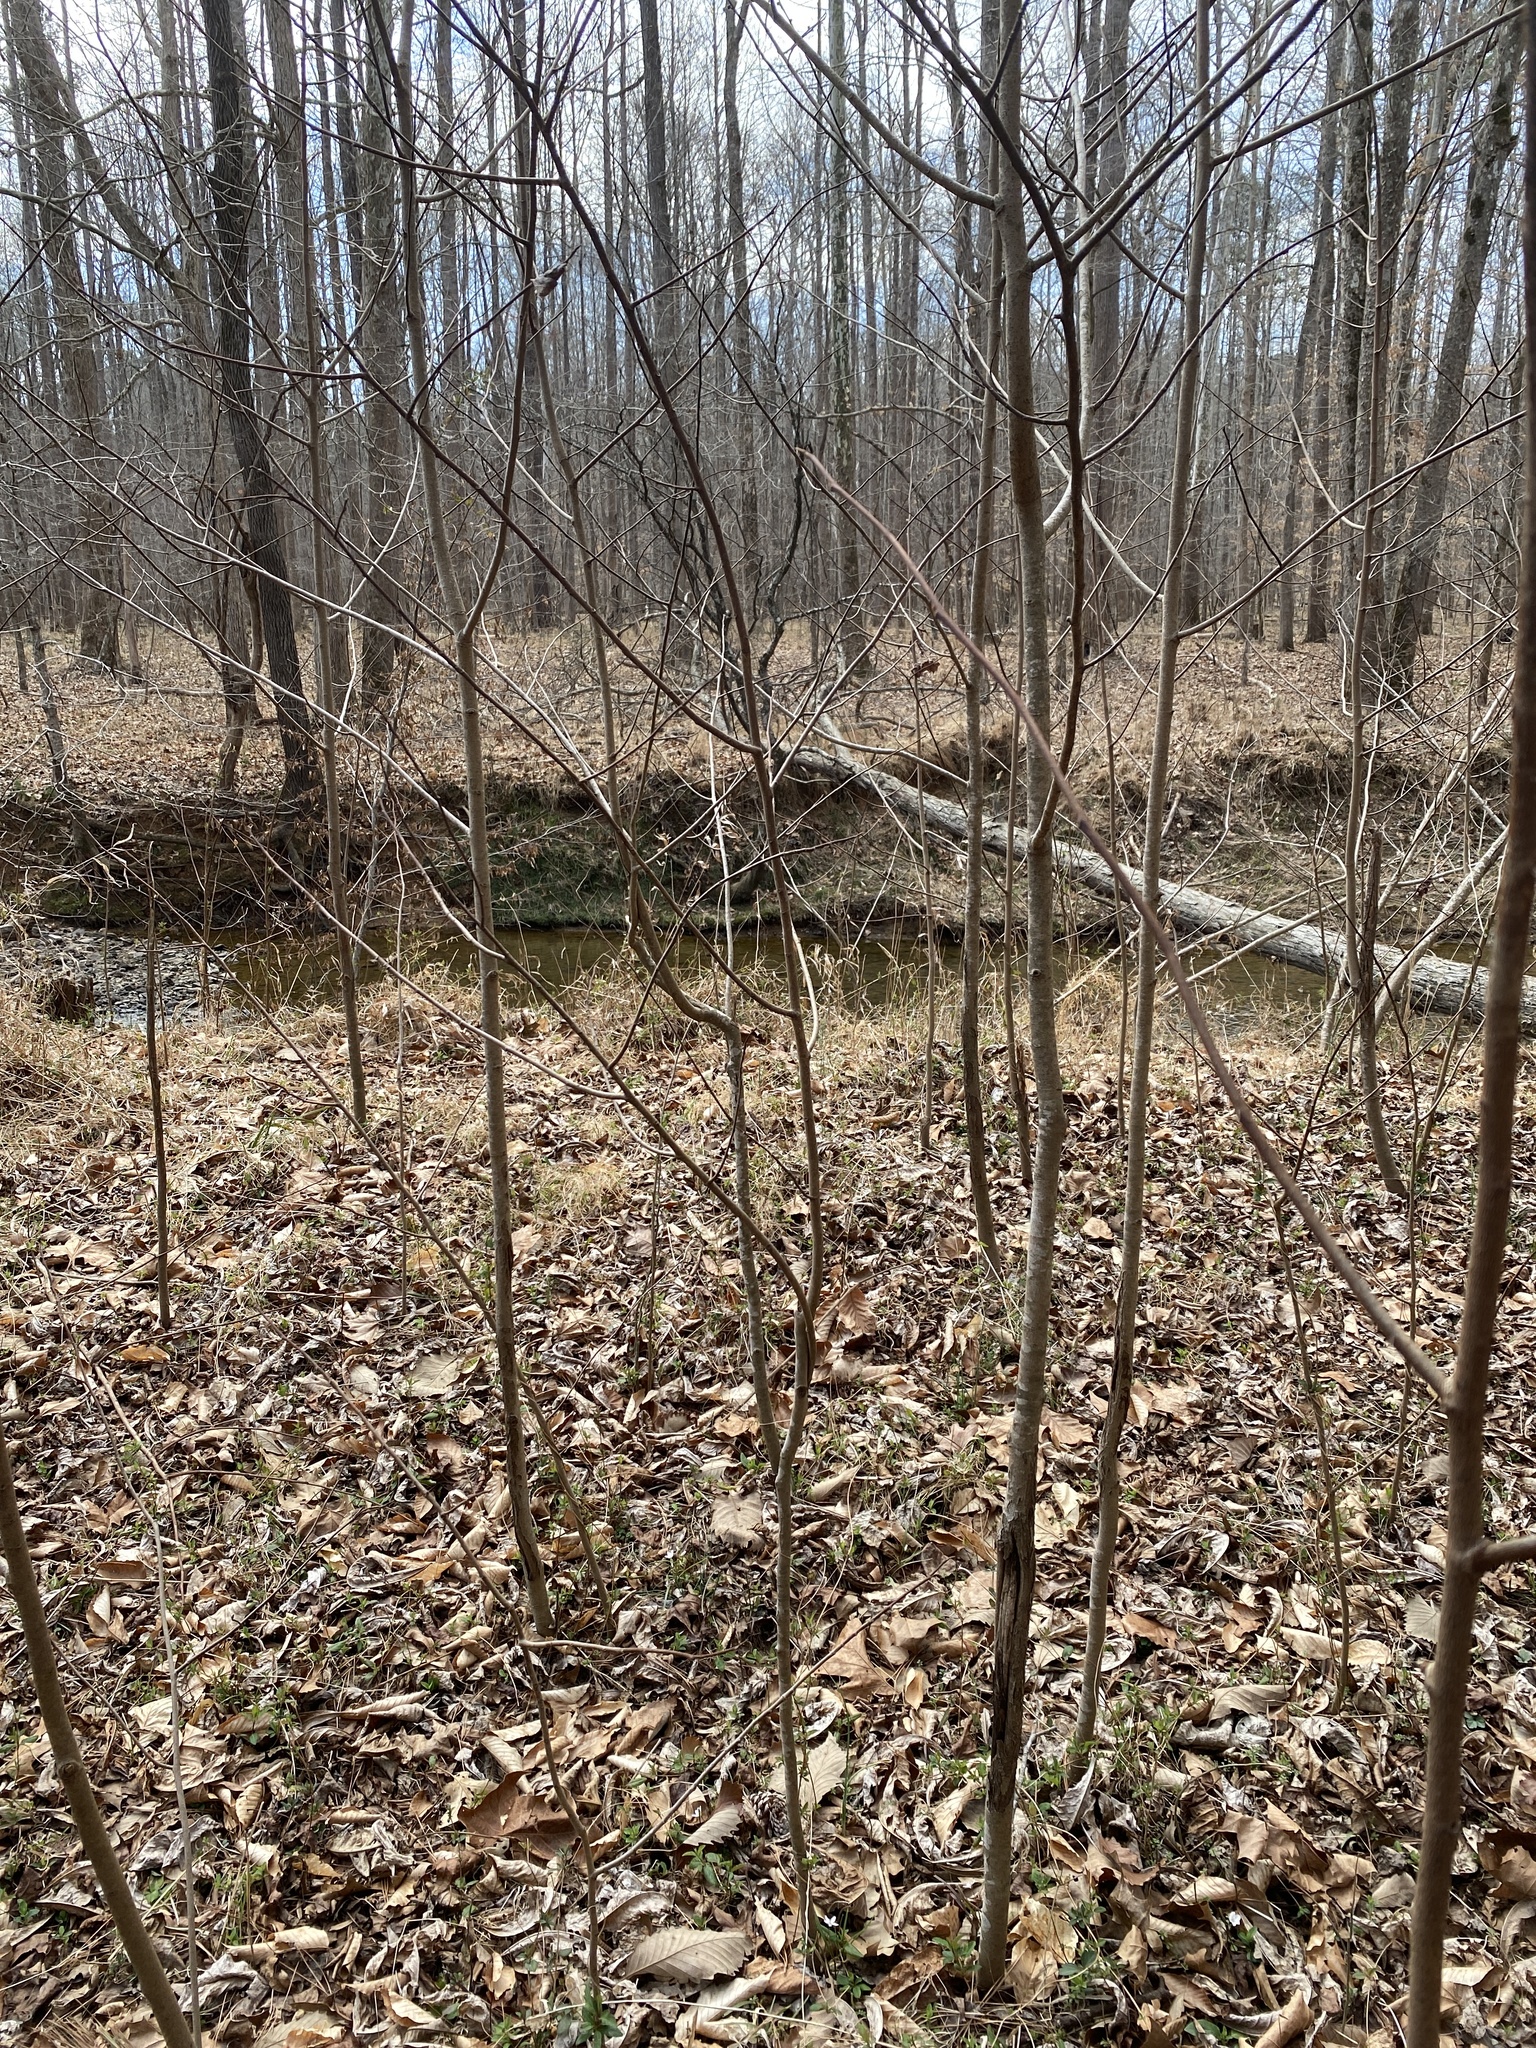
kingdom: Plantae
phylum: Tracheophyta
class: Magnoliopsida
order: Magnoliales
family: Annonaceae
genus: Asimina
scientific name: Asimina triloba
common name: Dog-banana
